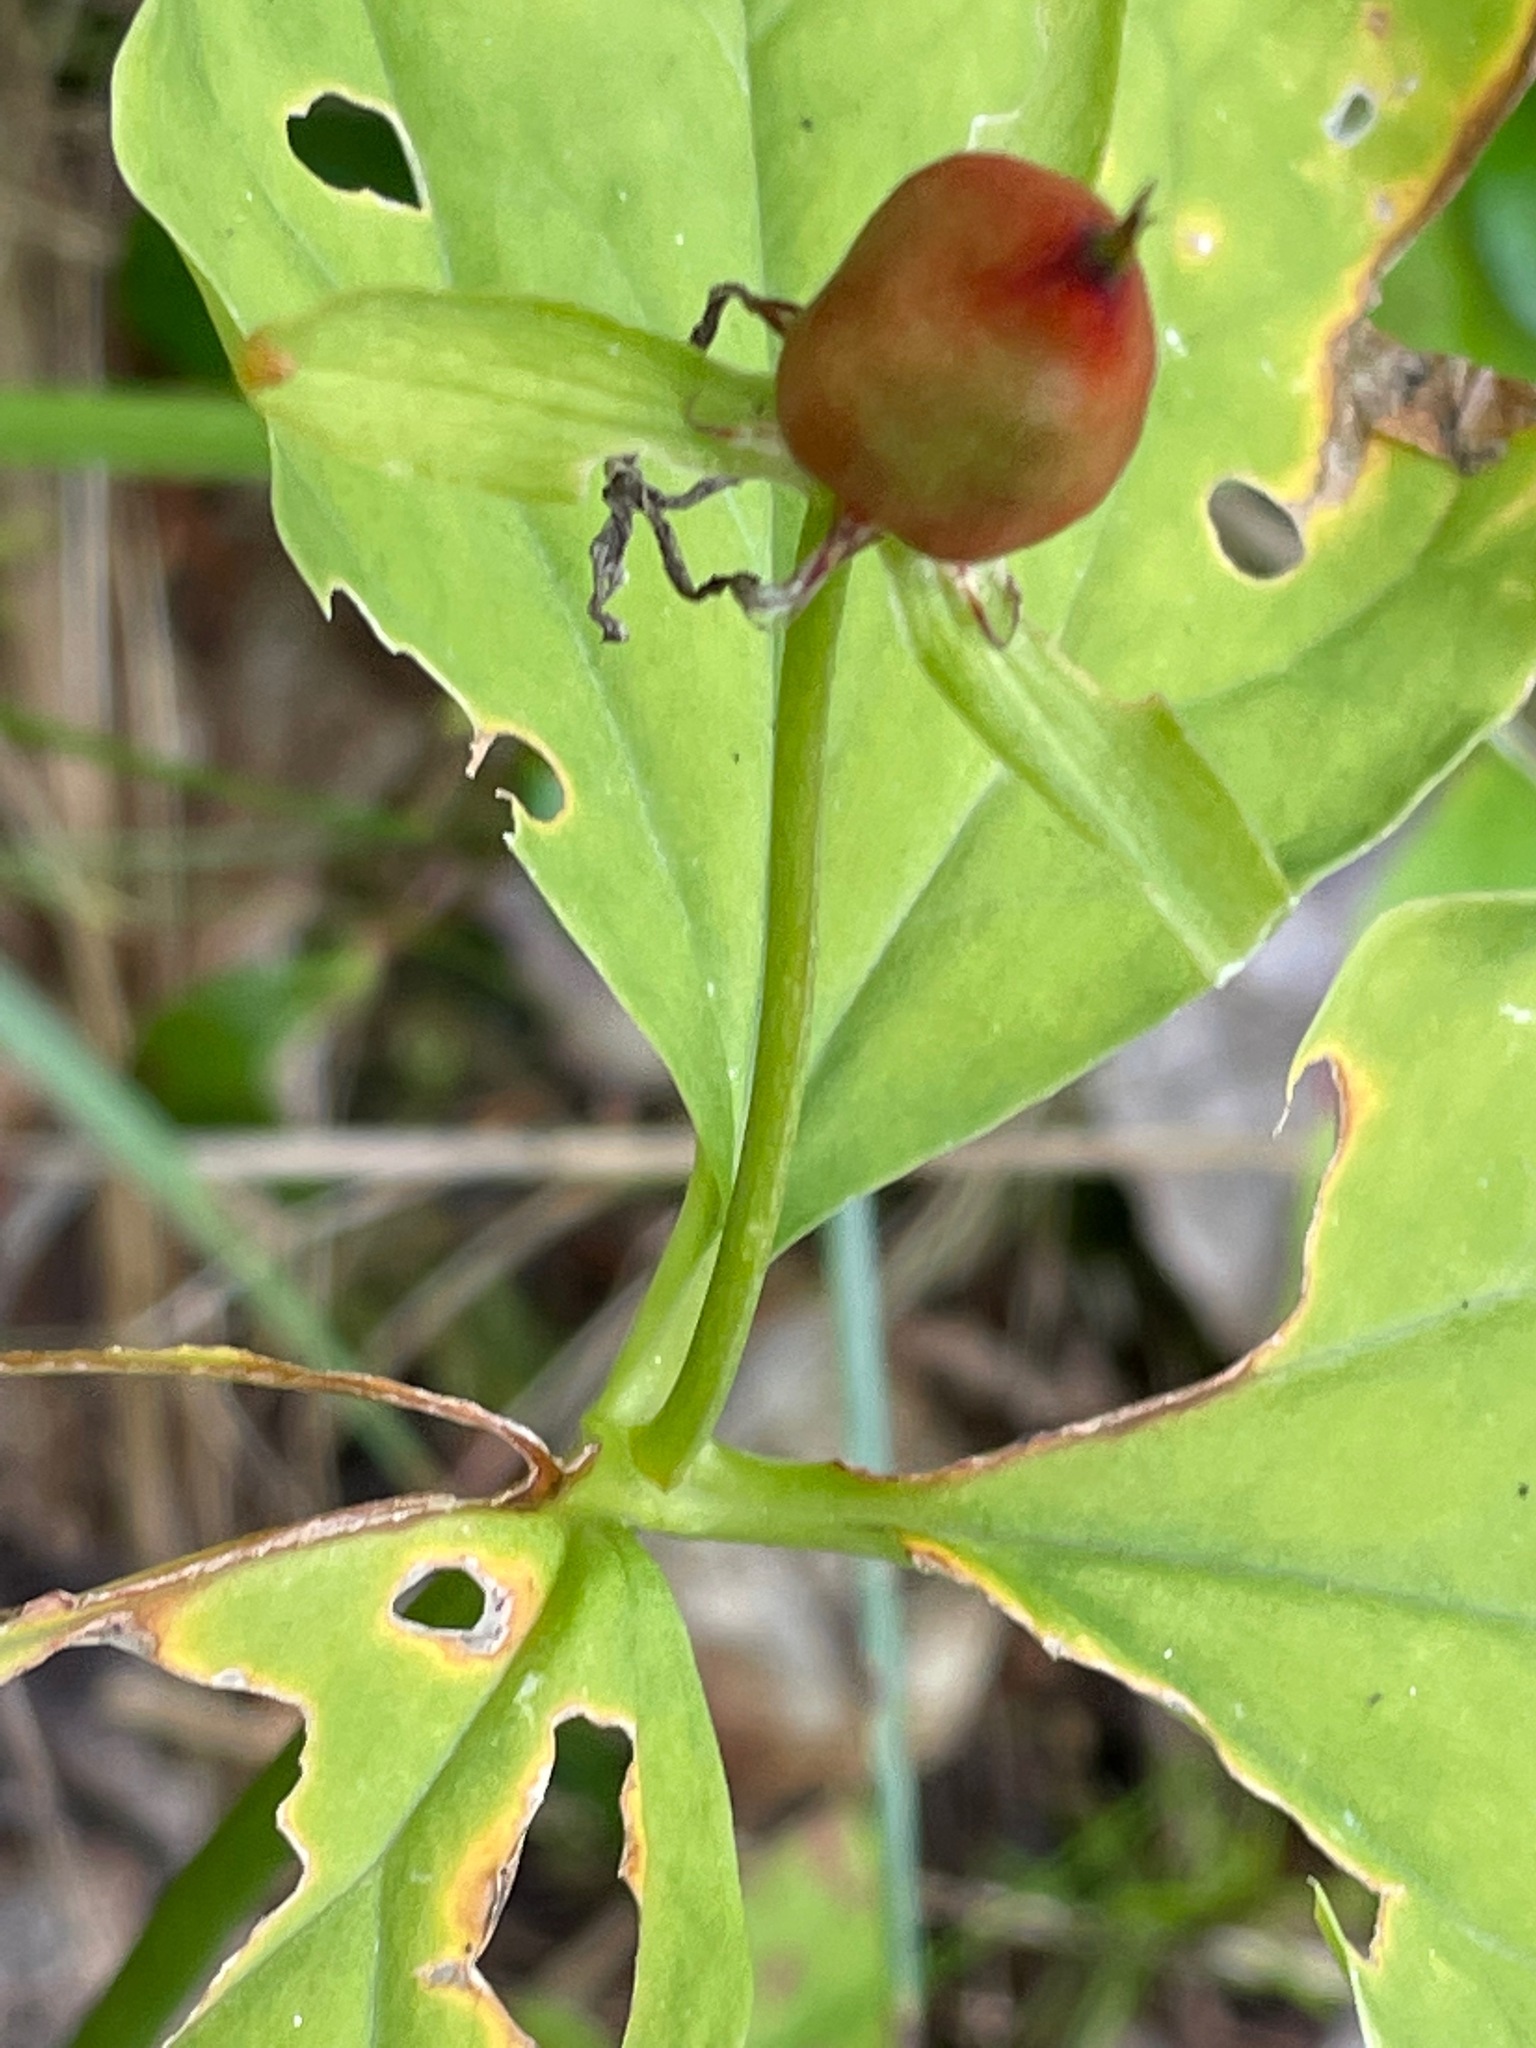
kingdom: Plantae
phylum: Tracheophyta
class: Liliopsida
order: Liliales
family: Melanthiaceae
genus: Trillium
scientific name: Trillium undulatum
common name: Paint trillium
